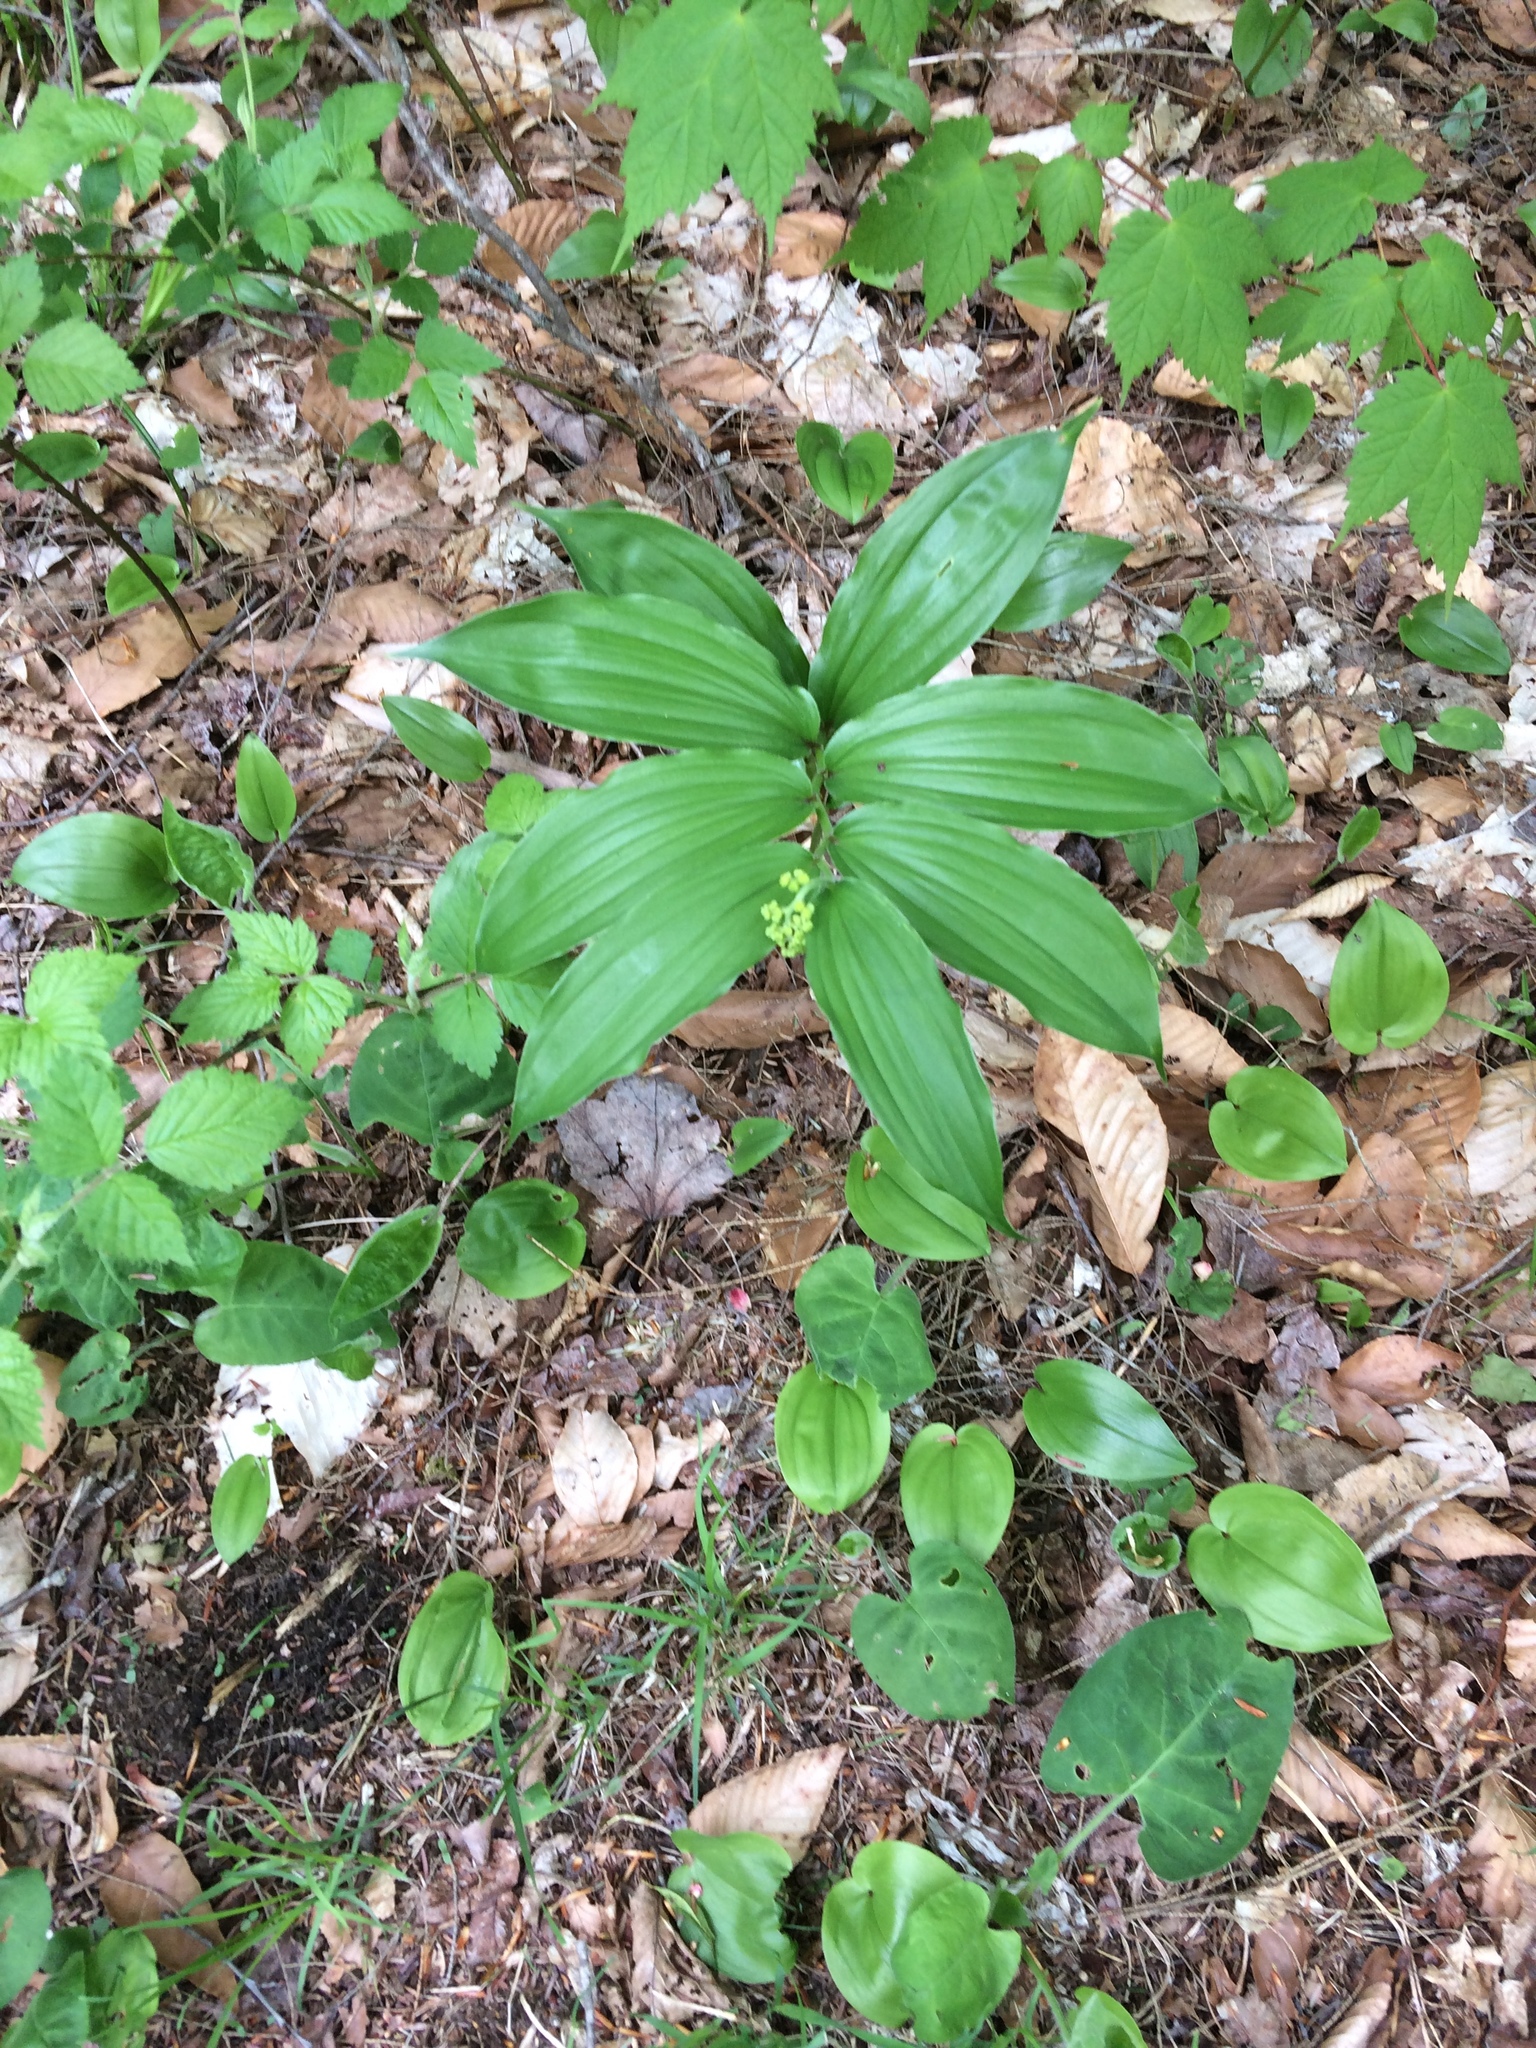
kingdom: Plantae
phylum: Tracheophyta
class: Liliopsida
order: Asparagales
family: Asparagaceae
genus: Maianthemum
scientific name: Maianthemum racemosum
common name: False spikenard
